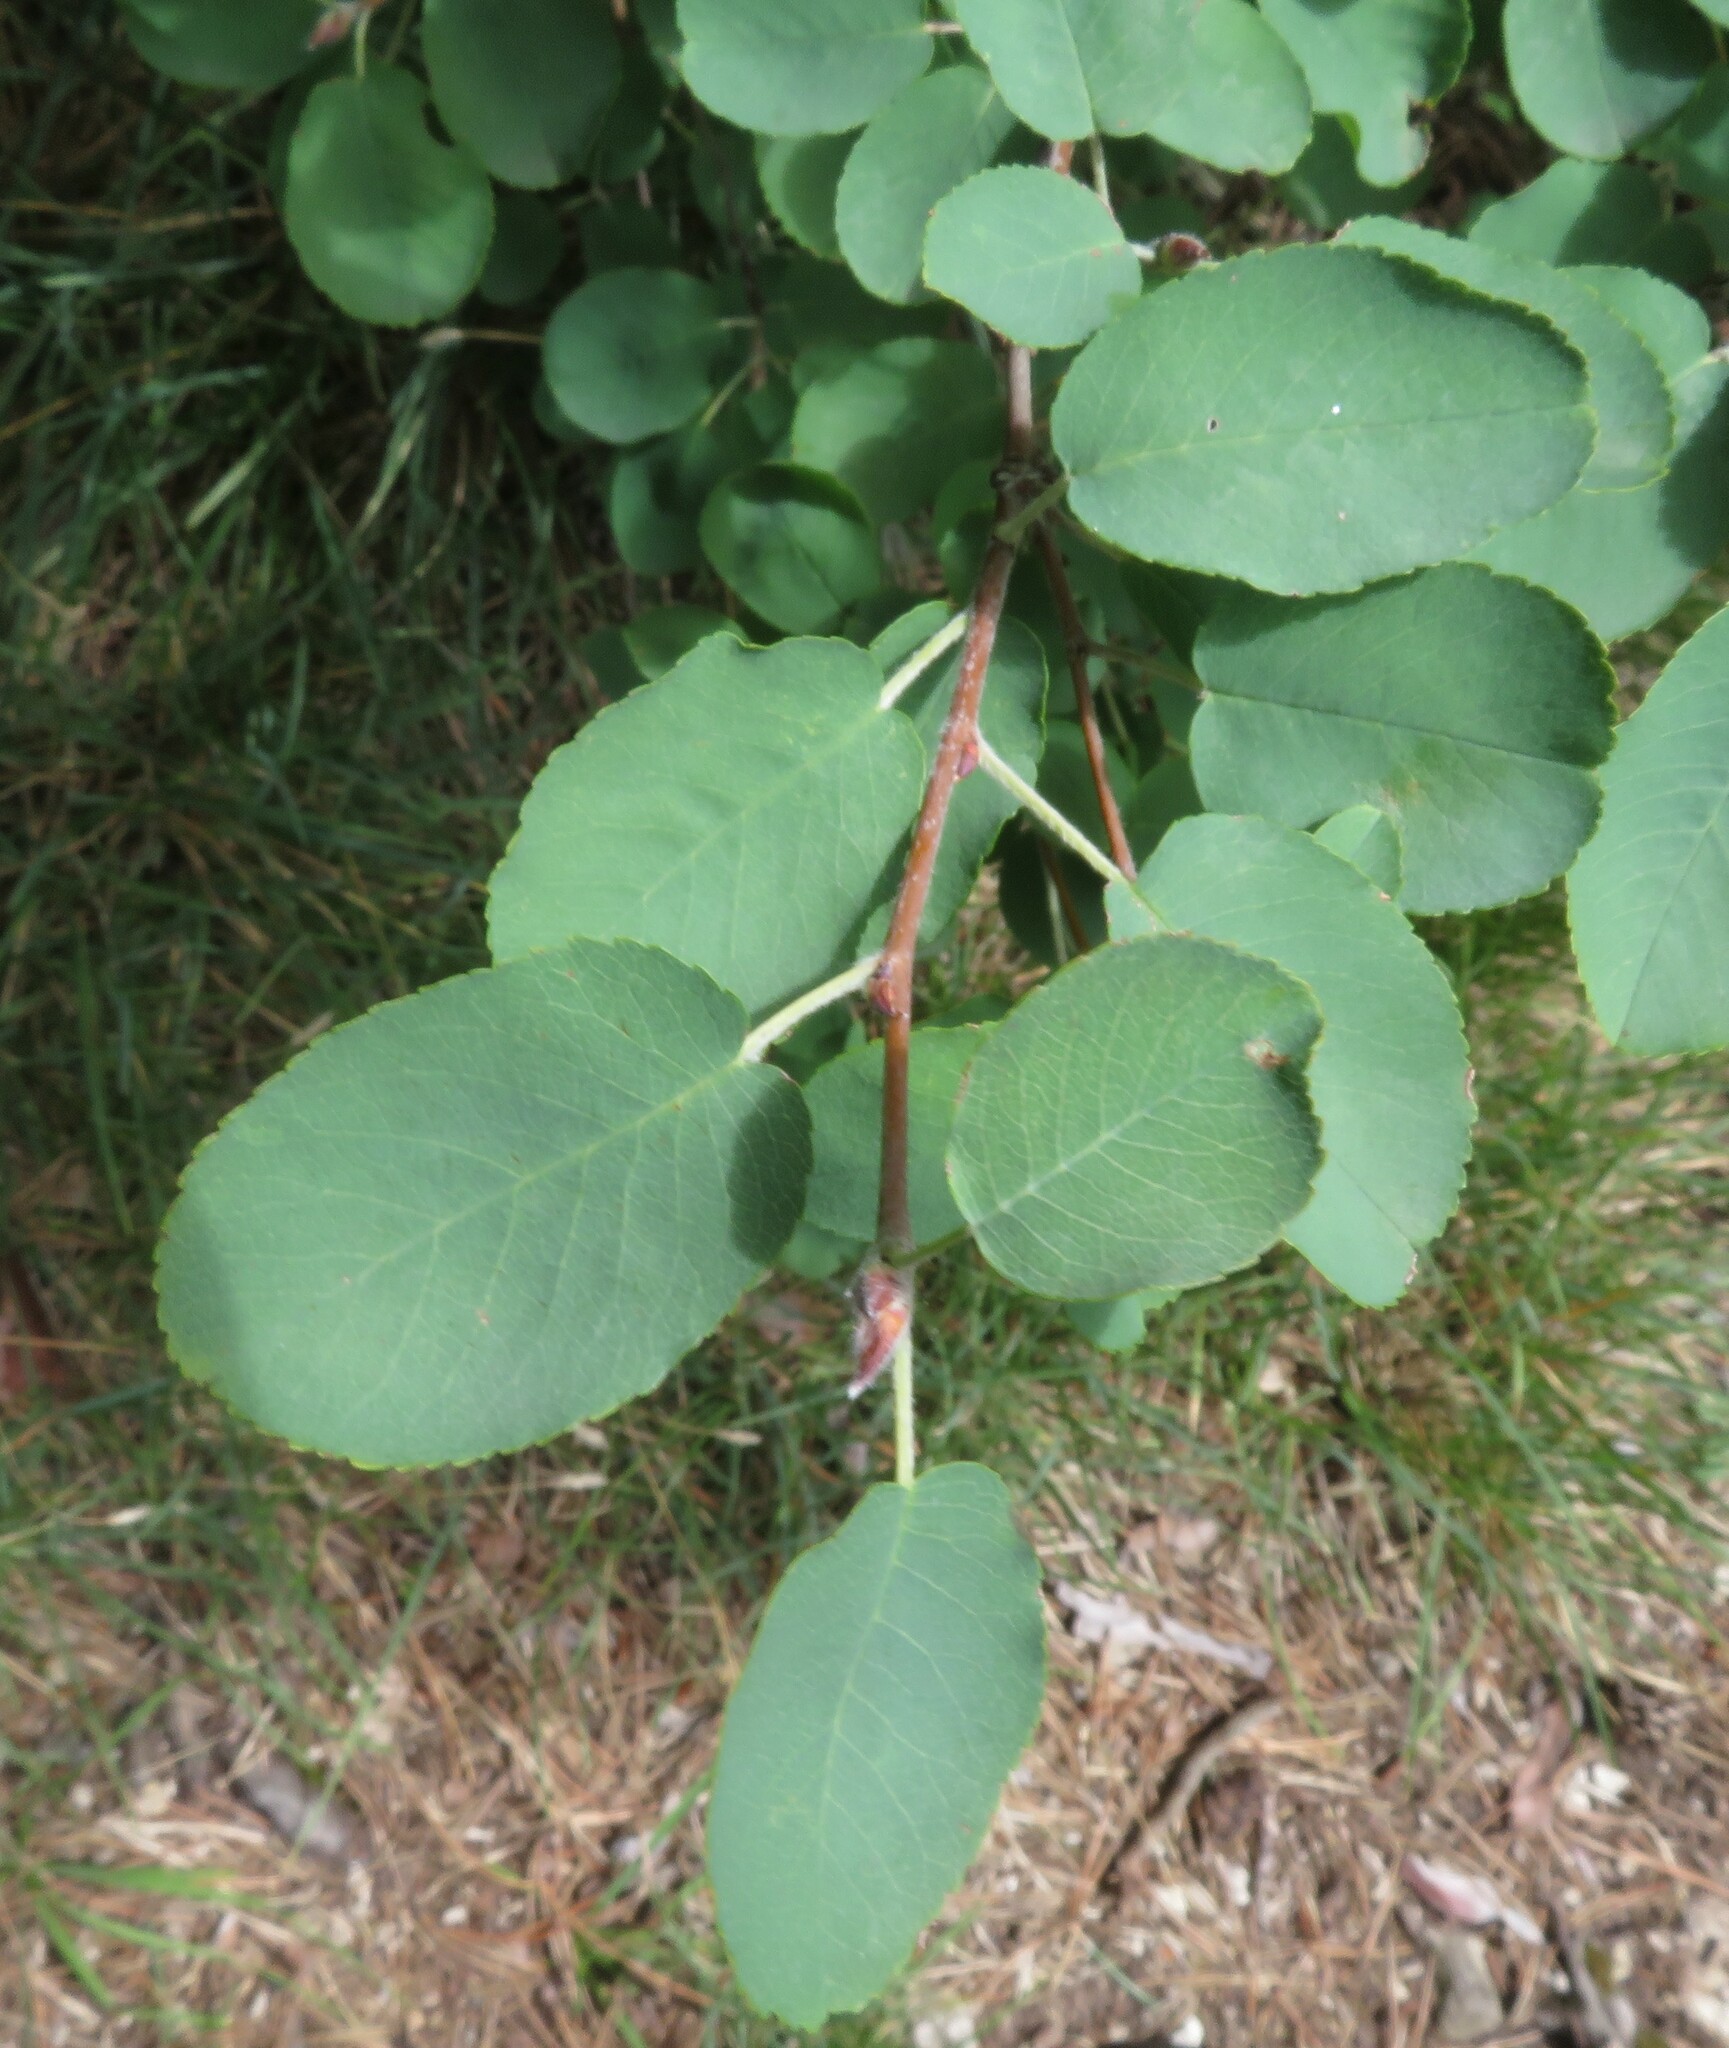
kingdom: Plantae
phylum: Tracheophyta
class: Magnoliopsida
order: Rosales
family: Rosaceae
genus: Amelanchier
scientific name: Amelanchier ovalis
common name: Serviceberry
